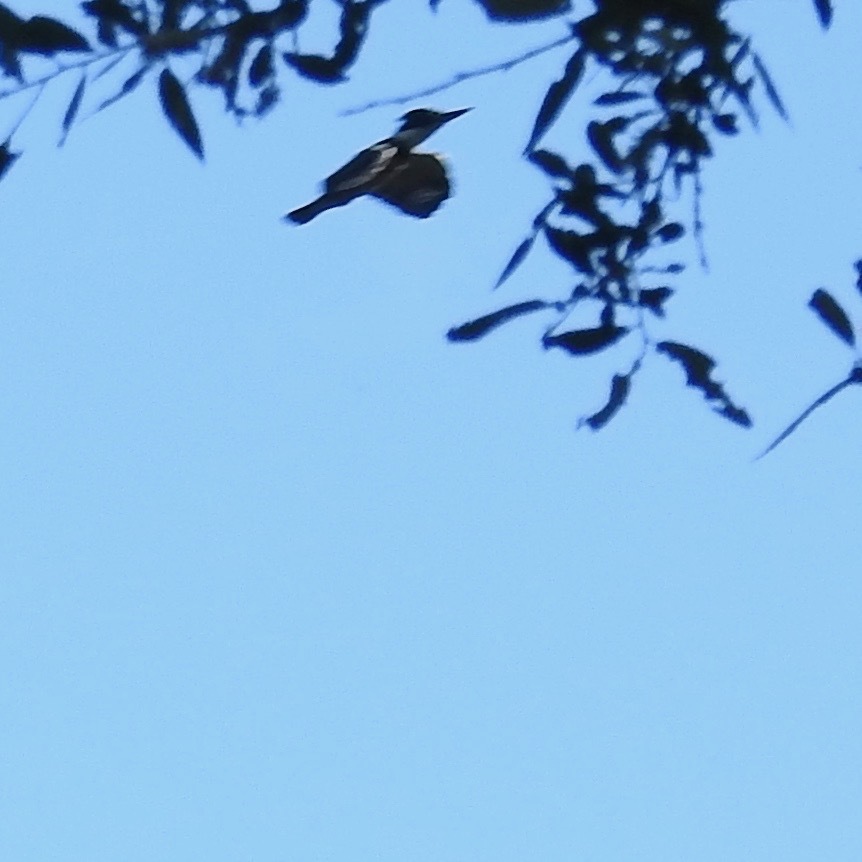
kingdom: Animalia
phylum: Chordata
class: Aves
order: Coraciiformes
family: Alcedinidae
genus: Megaceryle
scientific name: Megaceryle alcyon
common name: Belted kingfisher
